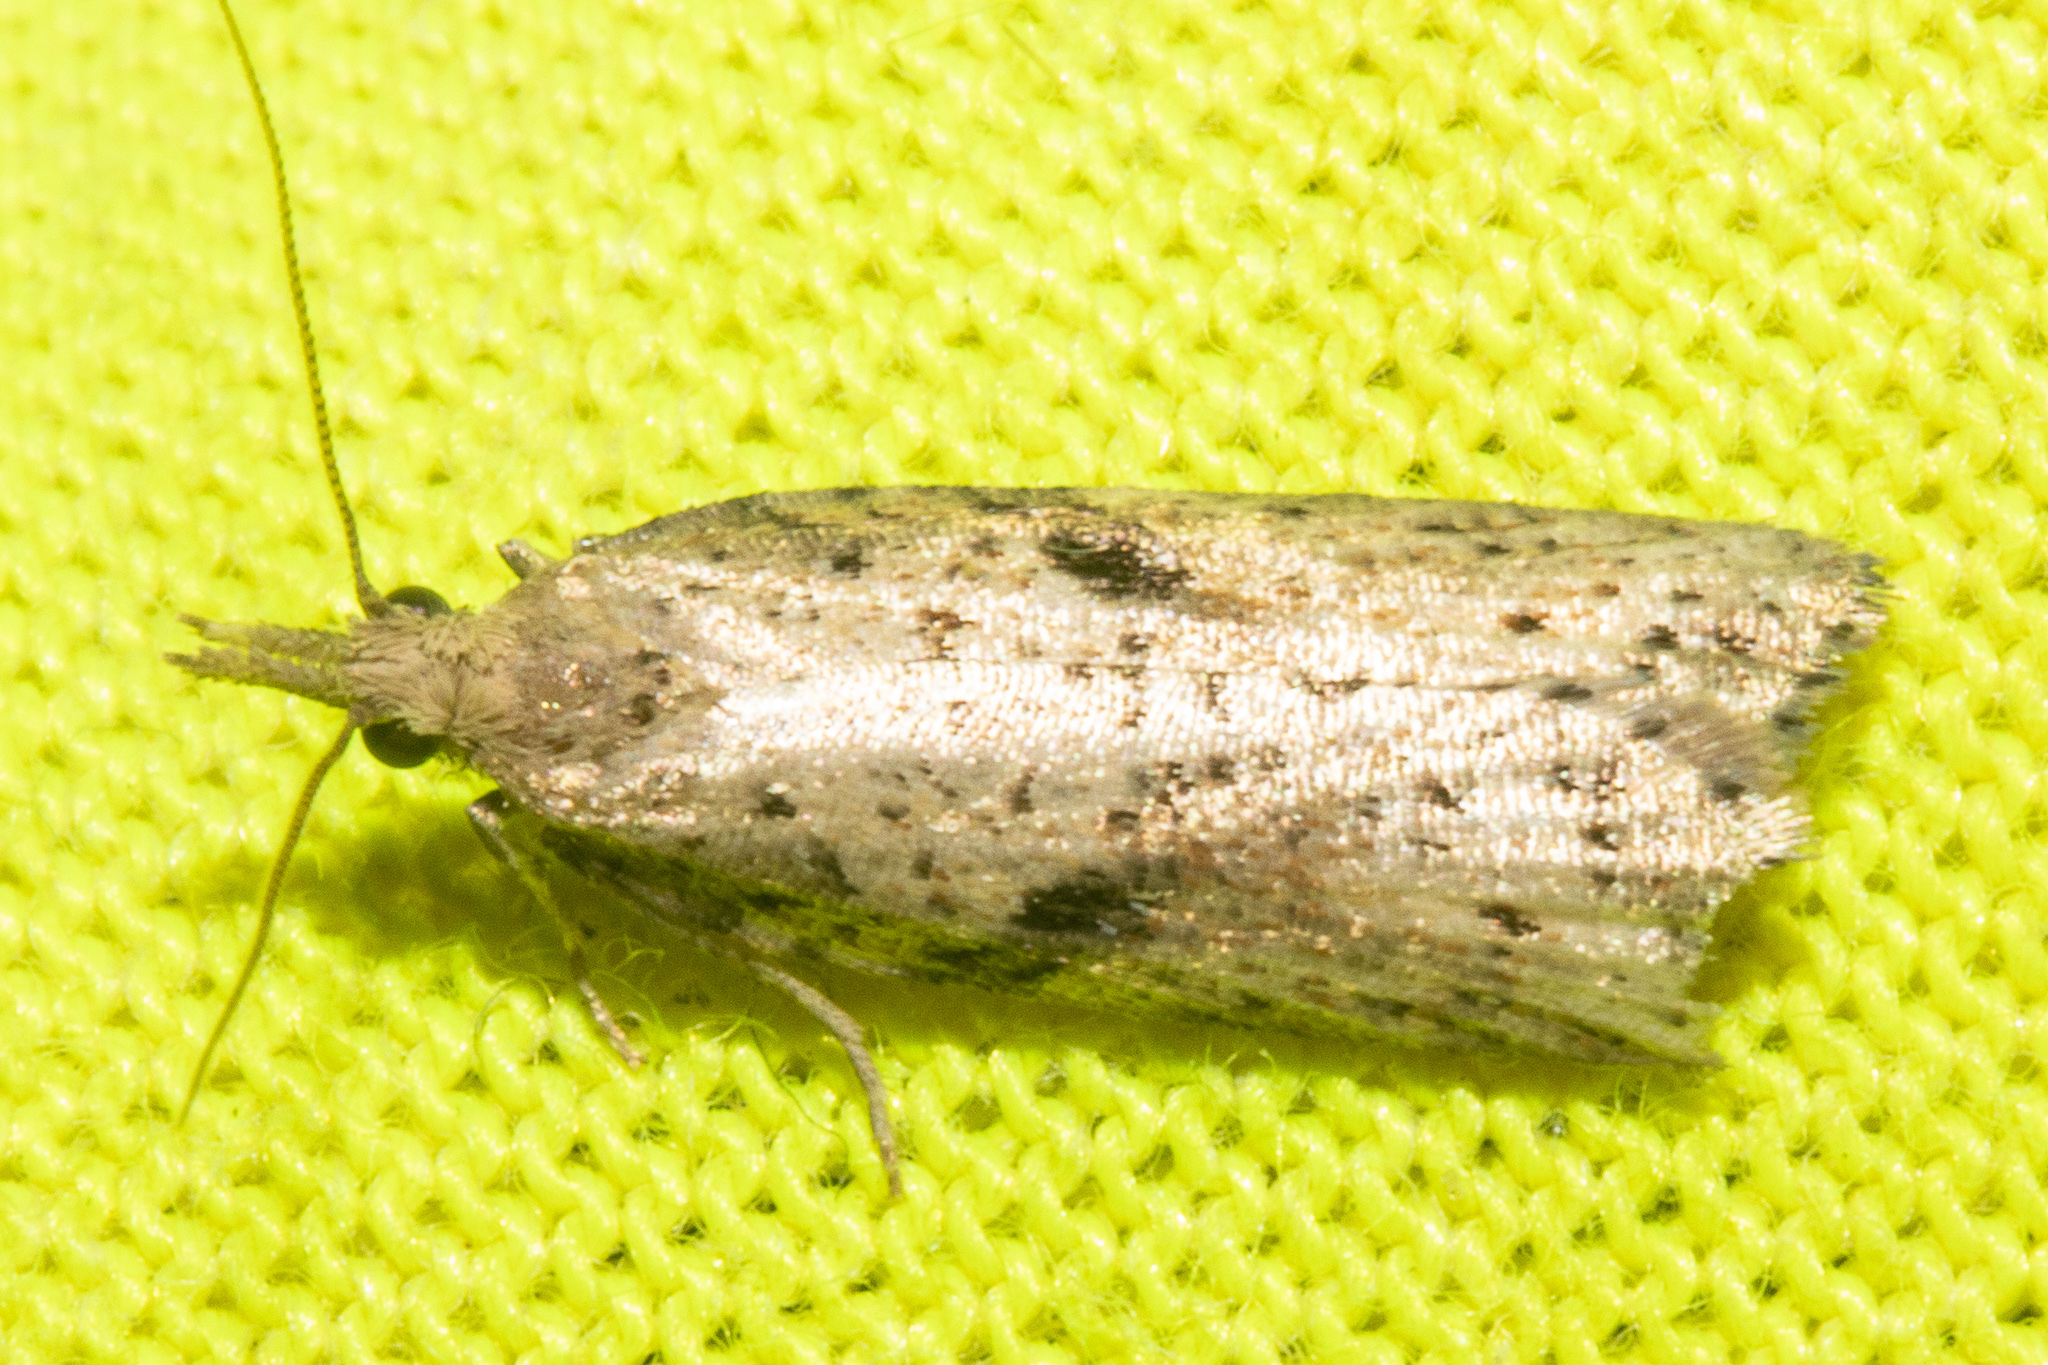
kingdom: Animalia
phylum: Arthropoda
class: Insecta
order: Lepidoptera
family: Tortricidae
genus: Apoctena
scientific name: Apoctena persecta
